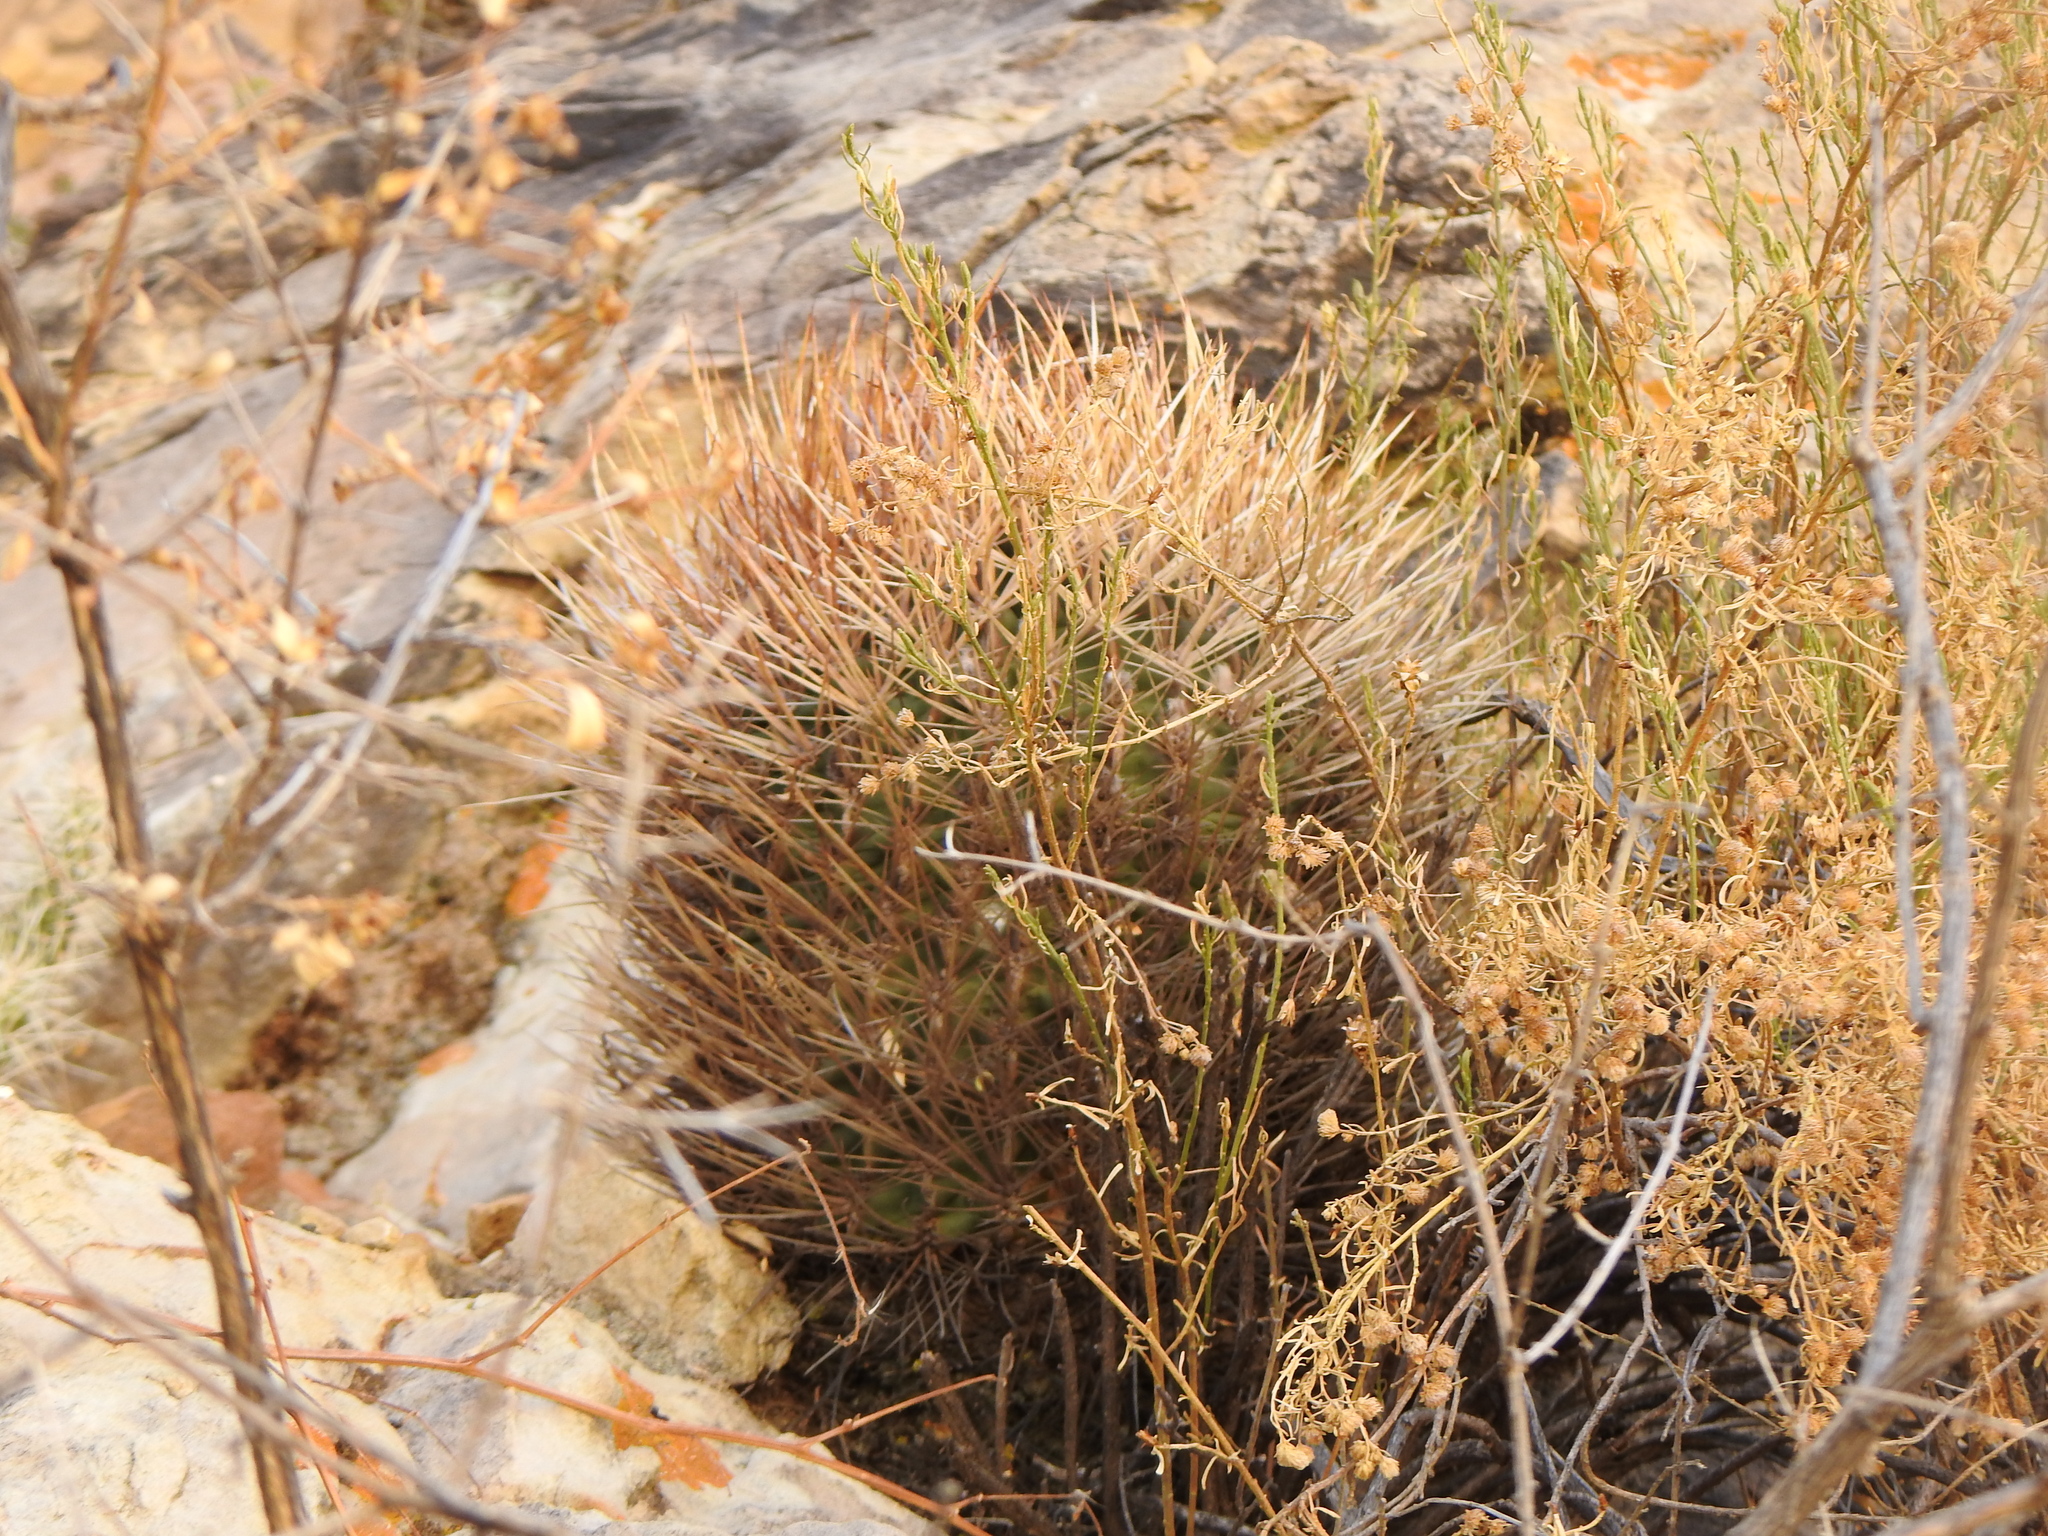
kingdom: Plantae
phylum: Tracheophyta
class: Magnoliopsida
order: Caryophyllales
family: Cactaceae
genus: Lobivia
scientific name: Lobivia ferox
